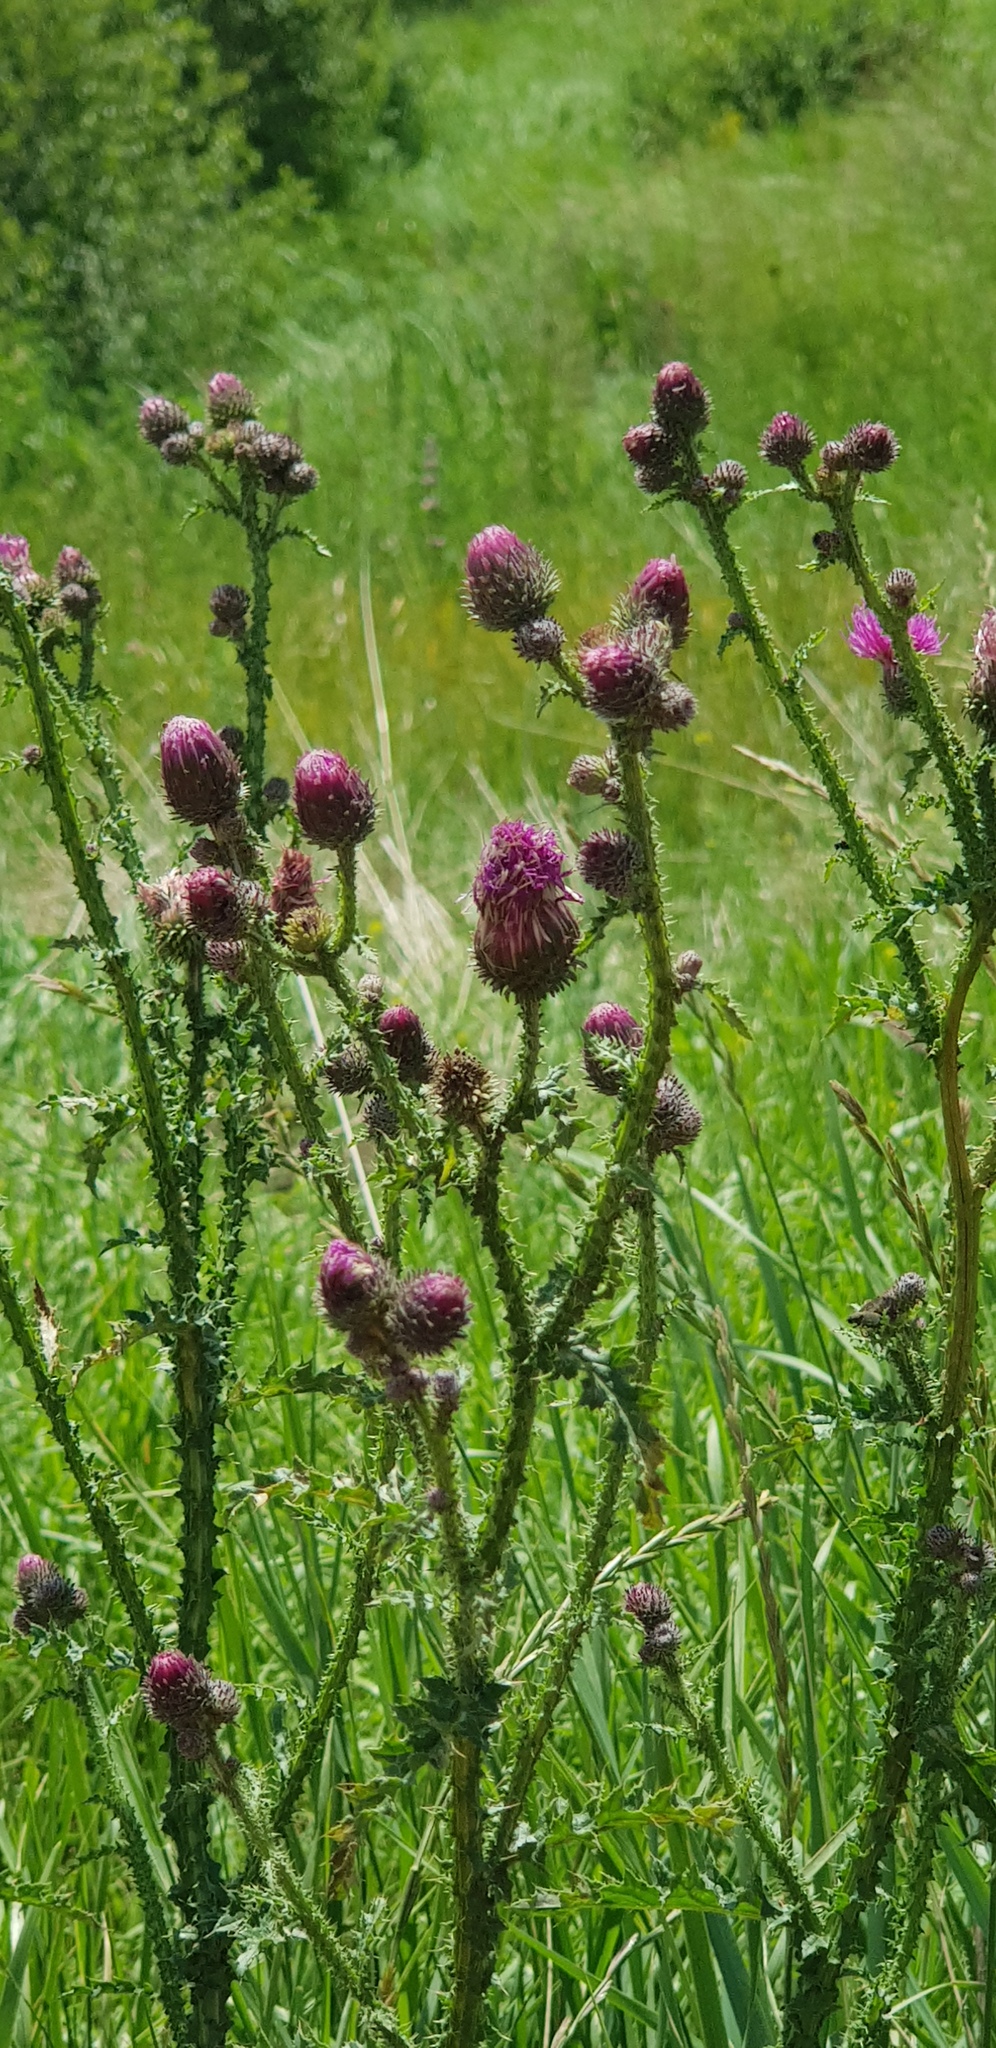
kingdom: Plantae
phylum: Tracheophyta
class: Magnoliopsida
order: Asterales
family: Asteraceae
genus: Carduus
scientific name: Carduus crispus
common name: Welted thistle
